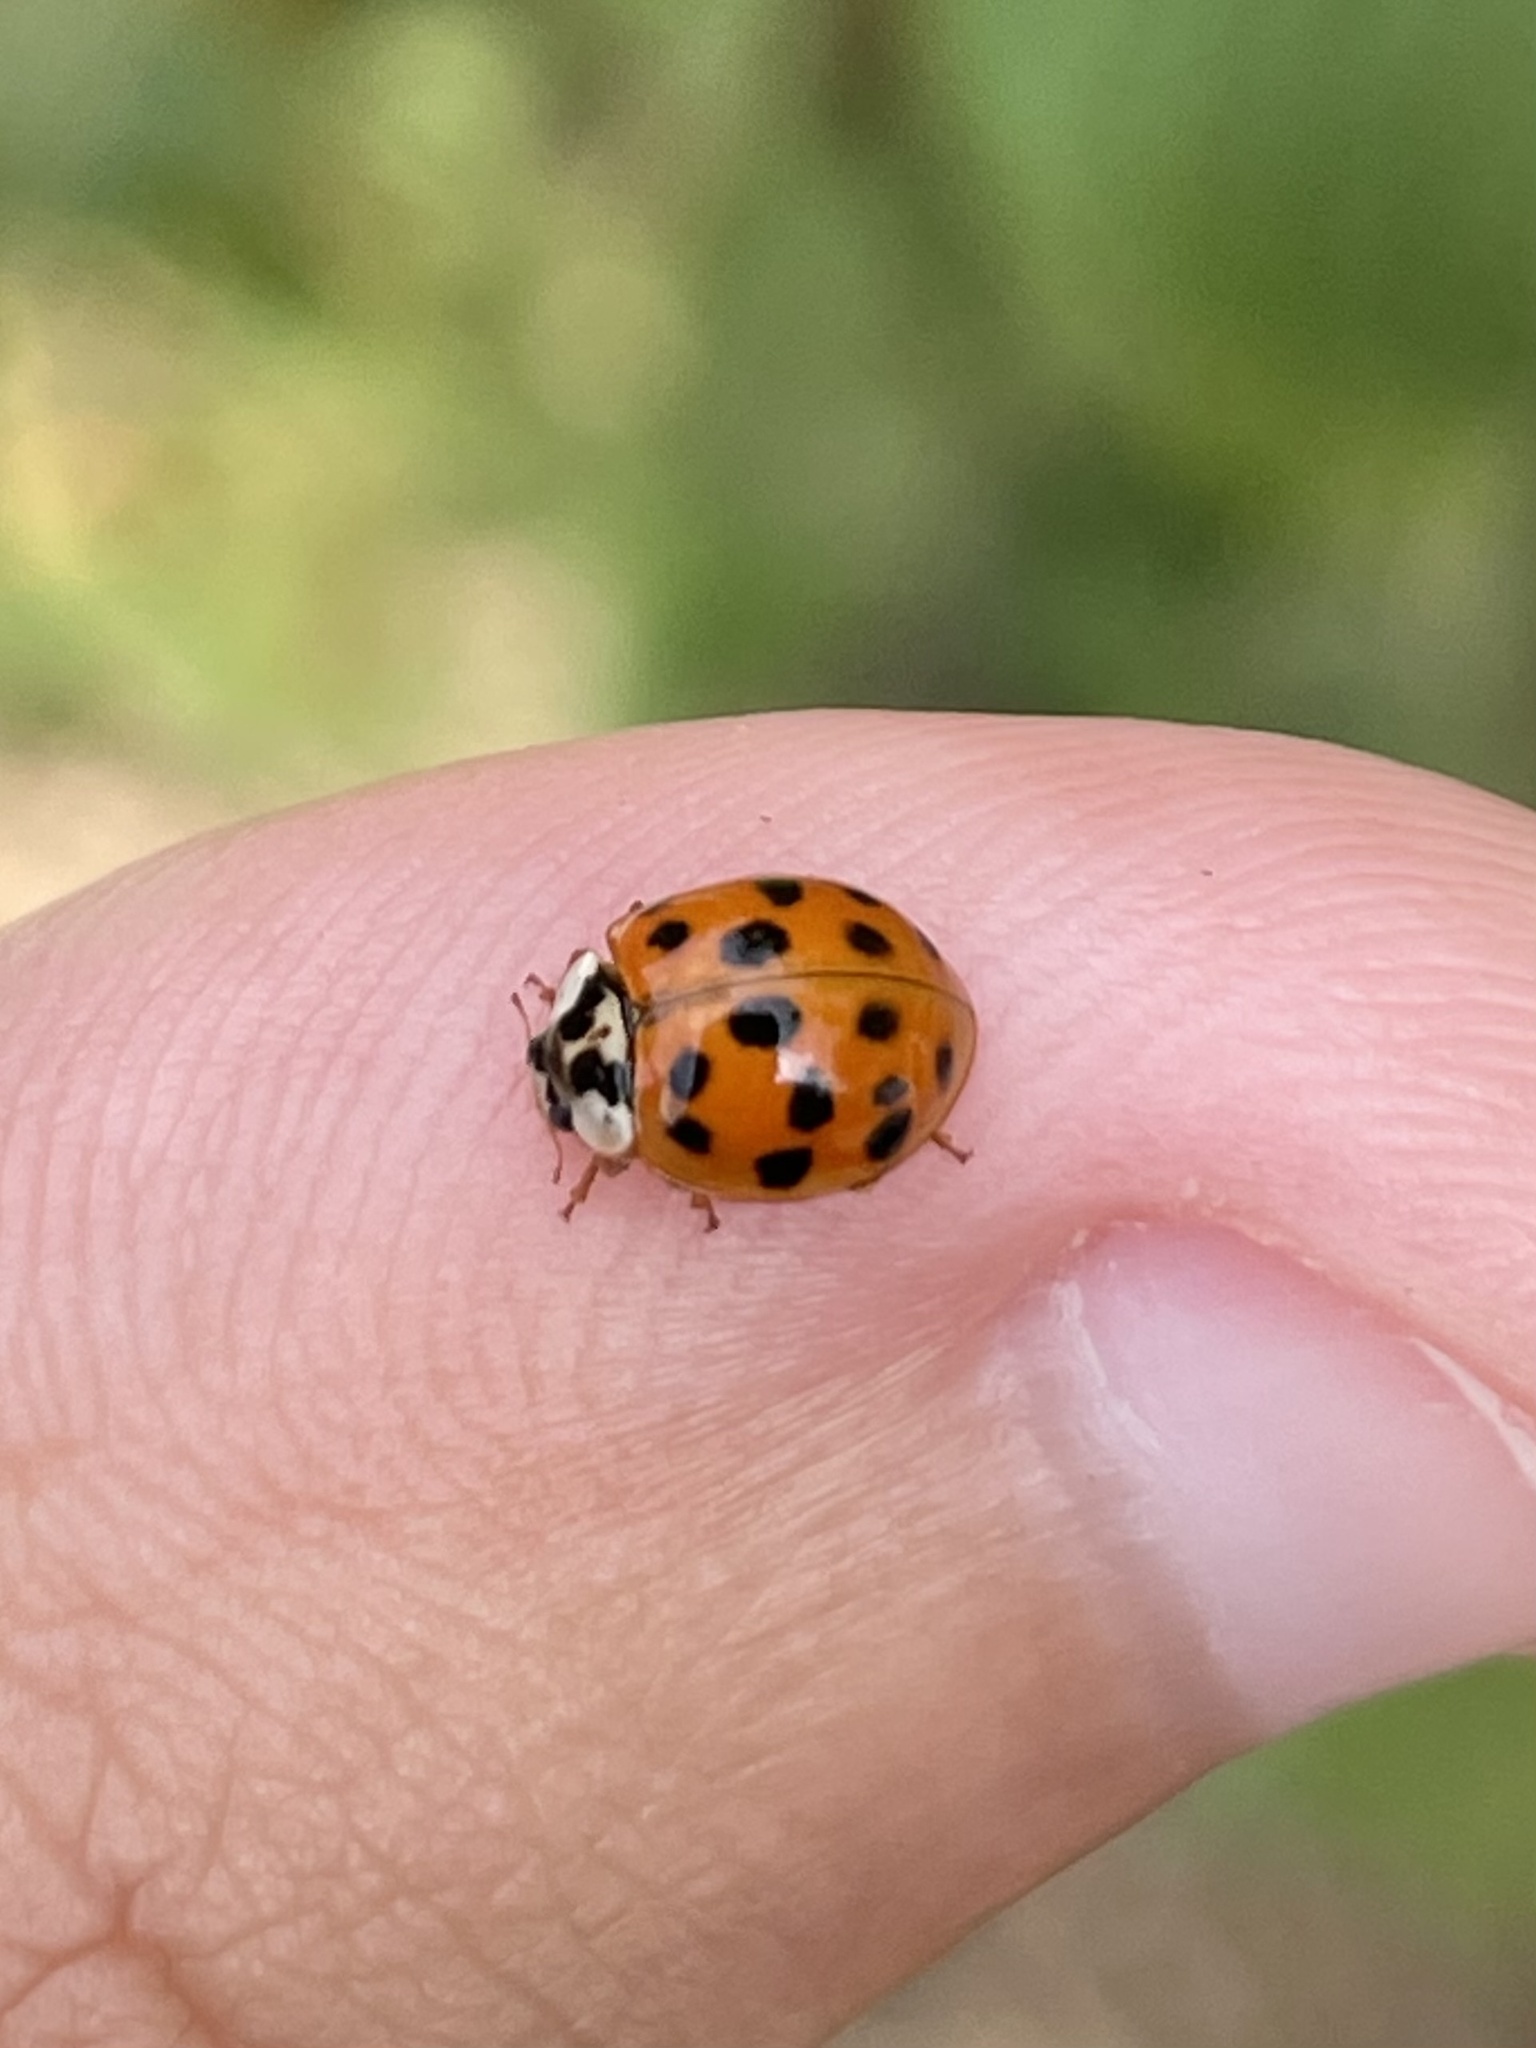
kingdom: Animalia
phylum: Arthropoda
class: Insecta
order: Coleoptera
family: Coccinellidae
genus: Harmonia
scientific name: Harmonia axyridis
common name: Harlequin ladybird
